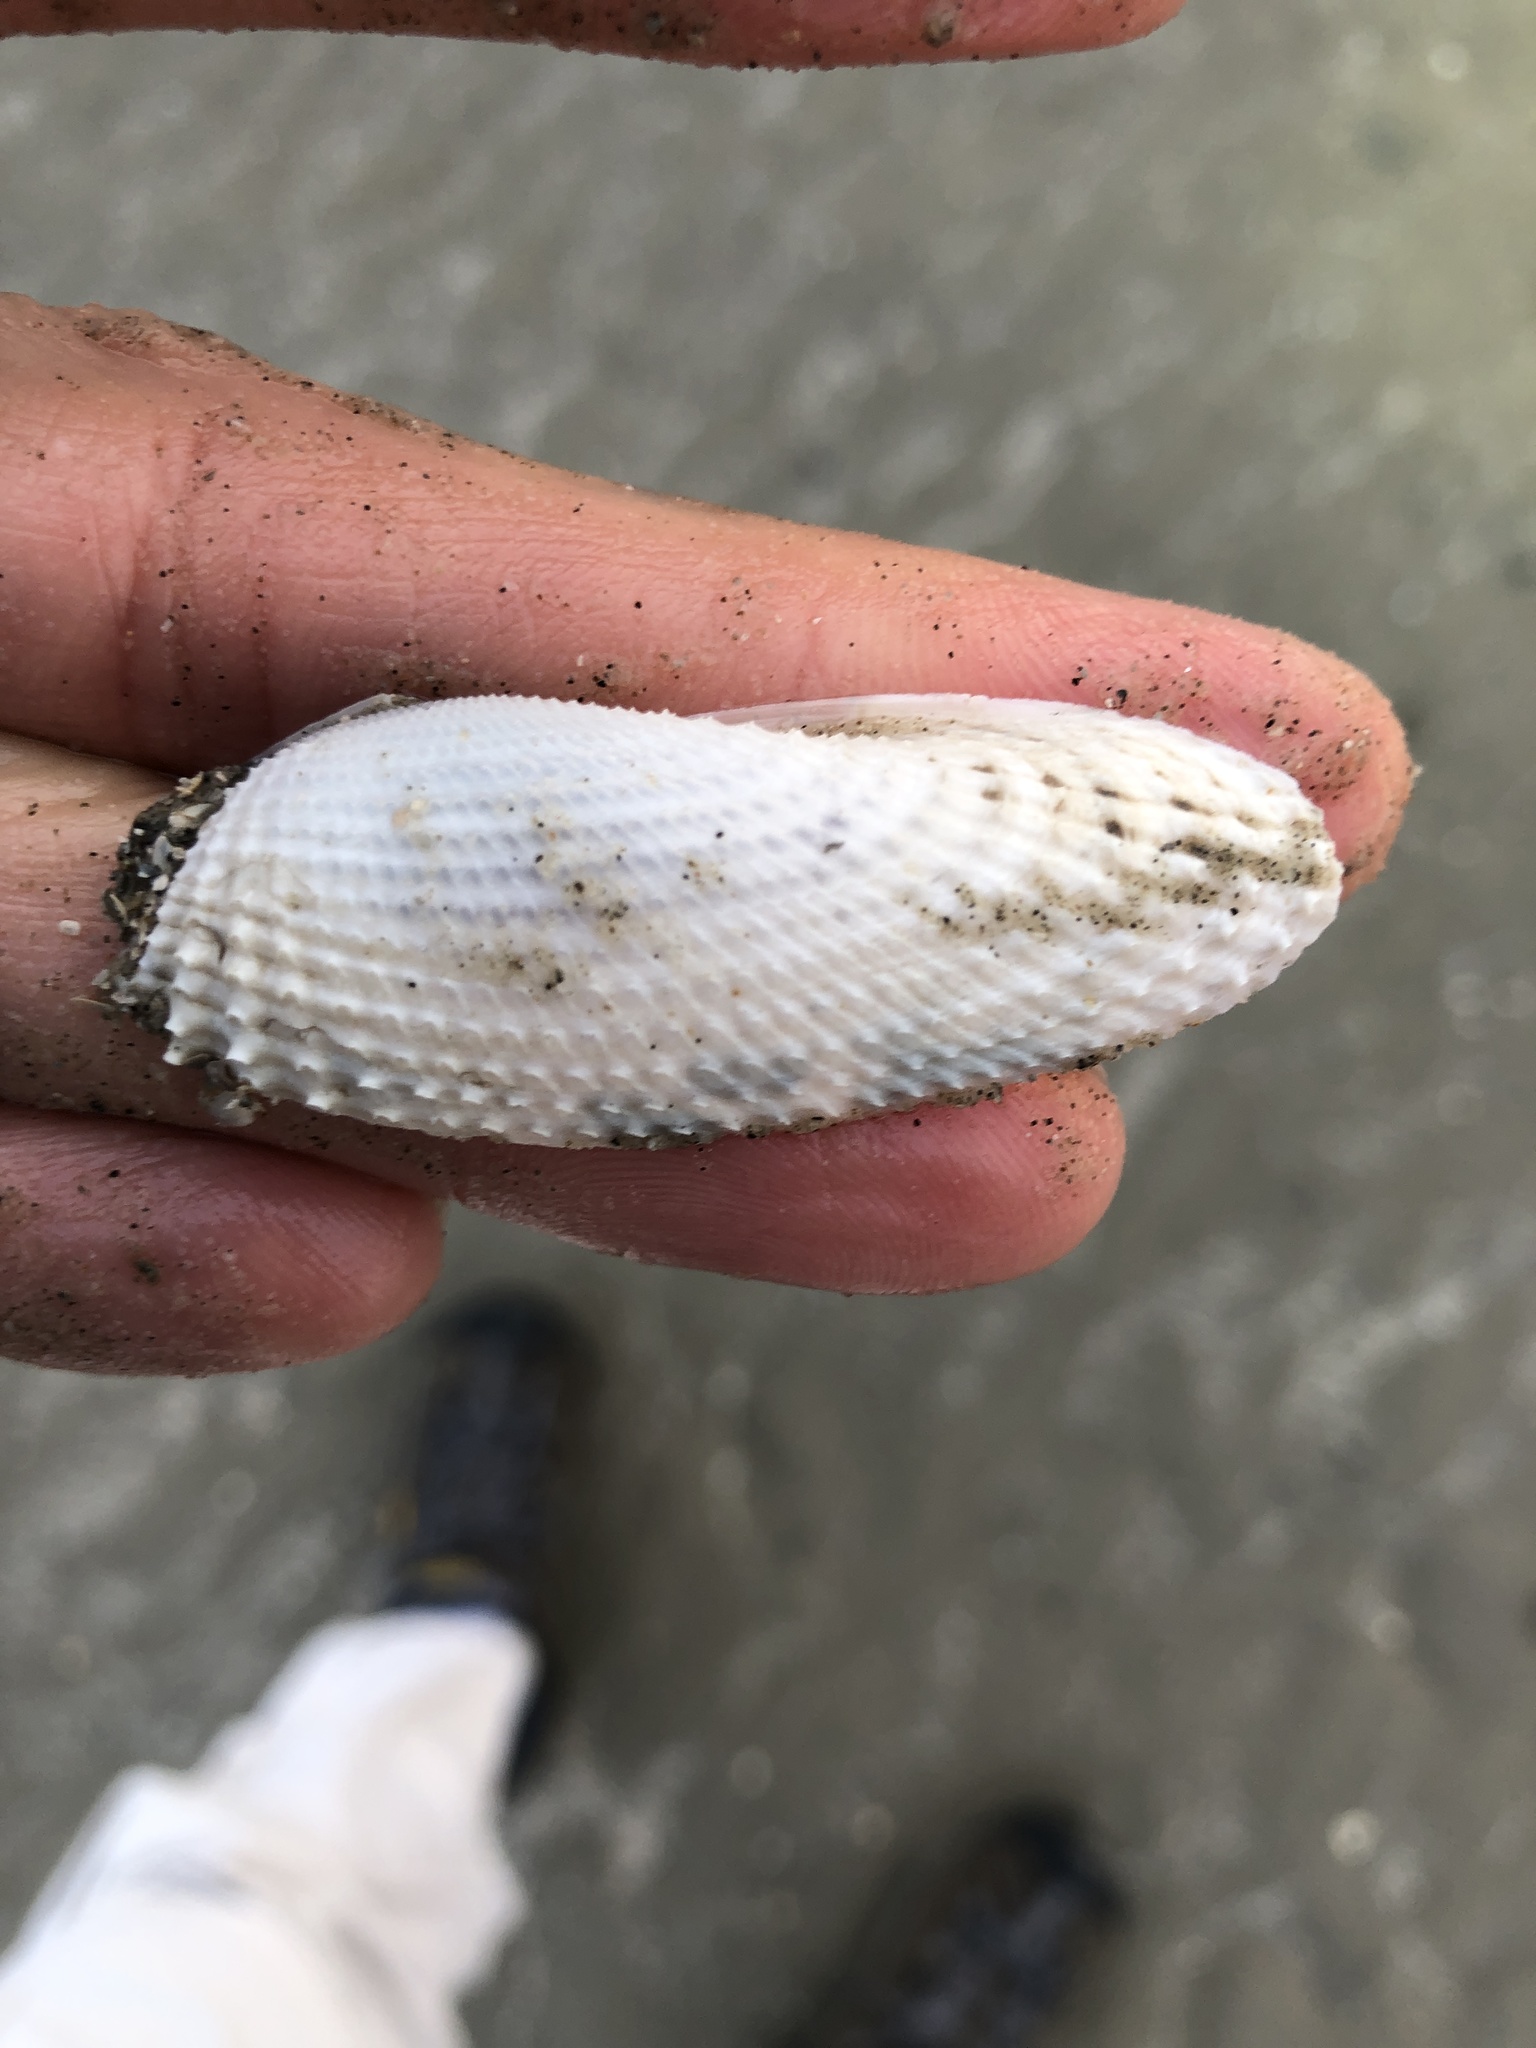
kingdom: Animalia
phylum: Mollusca
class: Bivalvia
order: Myida
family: Pholadidae
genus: Cyrtopleura
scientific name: Cyrtopleura costata
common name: Angel wing
